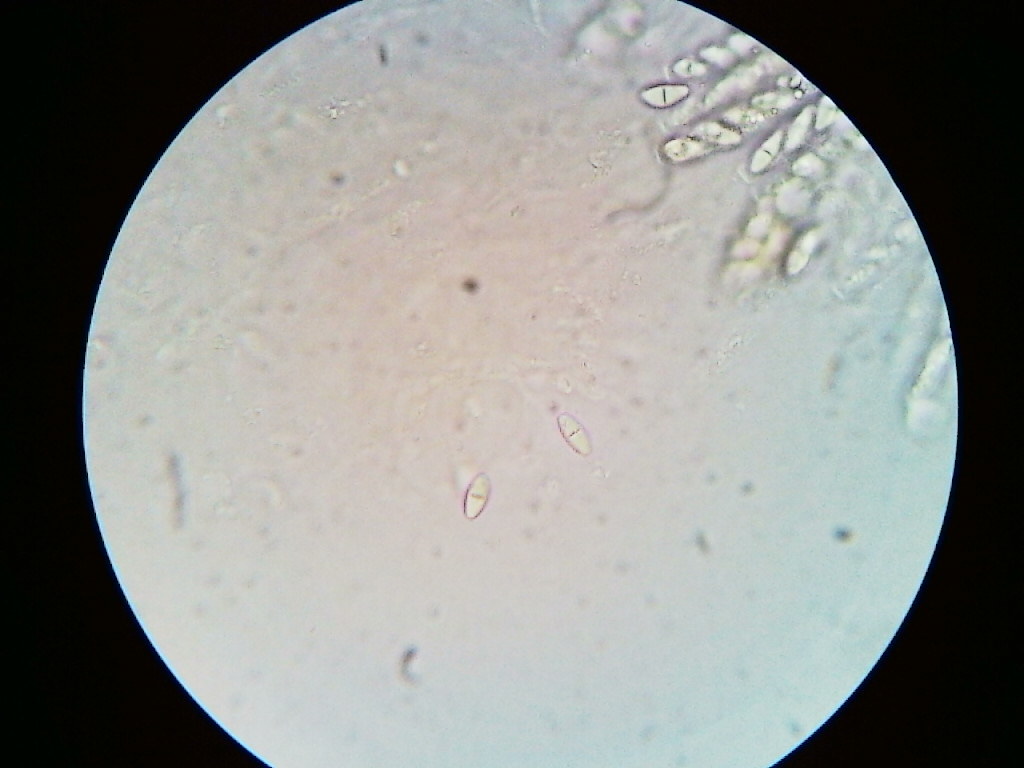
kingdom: Fungi
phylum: Ascomycota
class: Sordariomycetes
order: Hypocreales
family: Nectriaceae
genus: Dialonectria
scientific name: Dialonectria episphaeria
